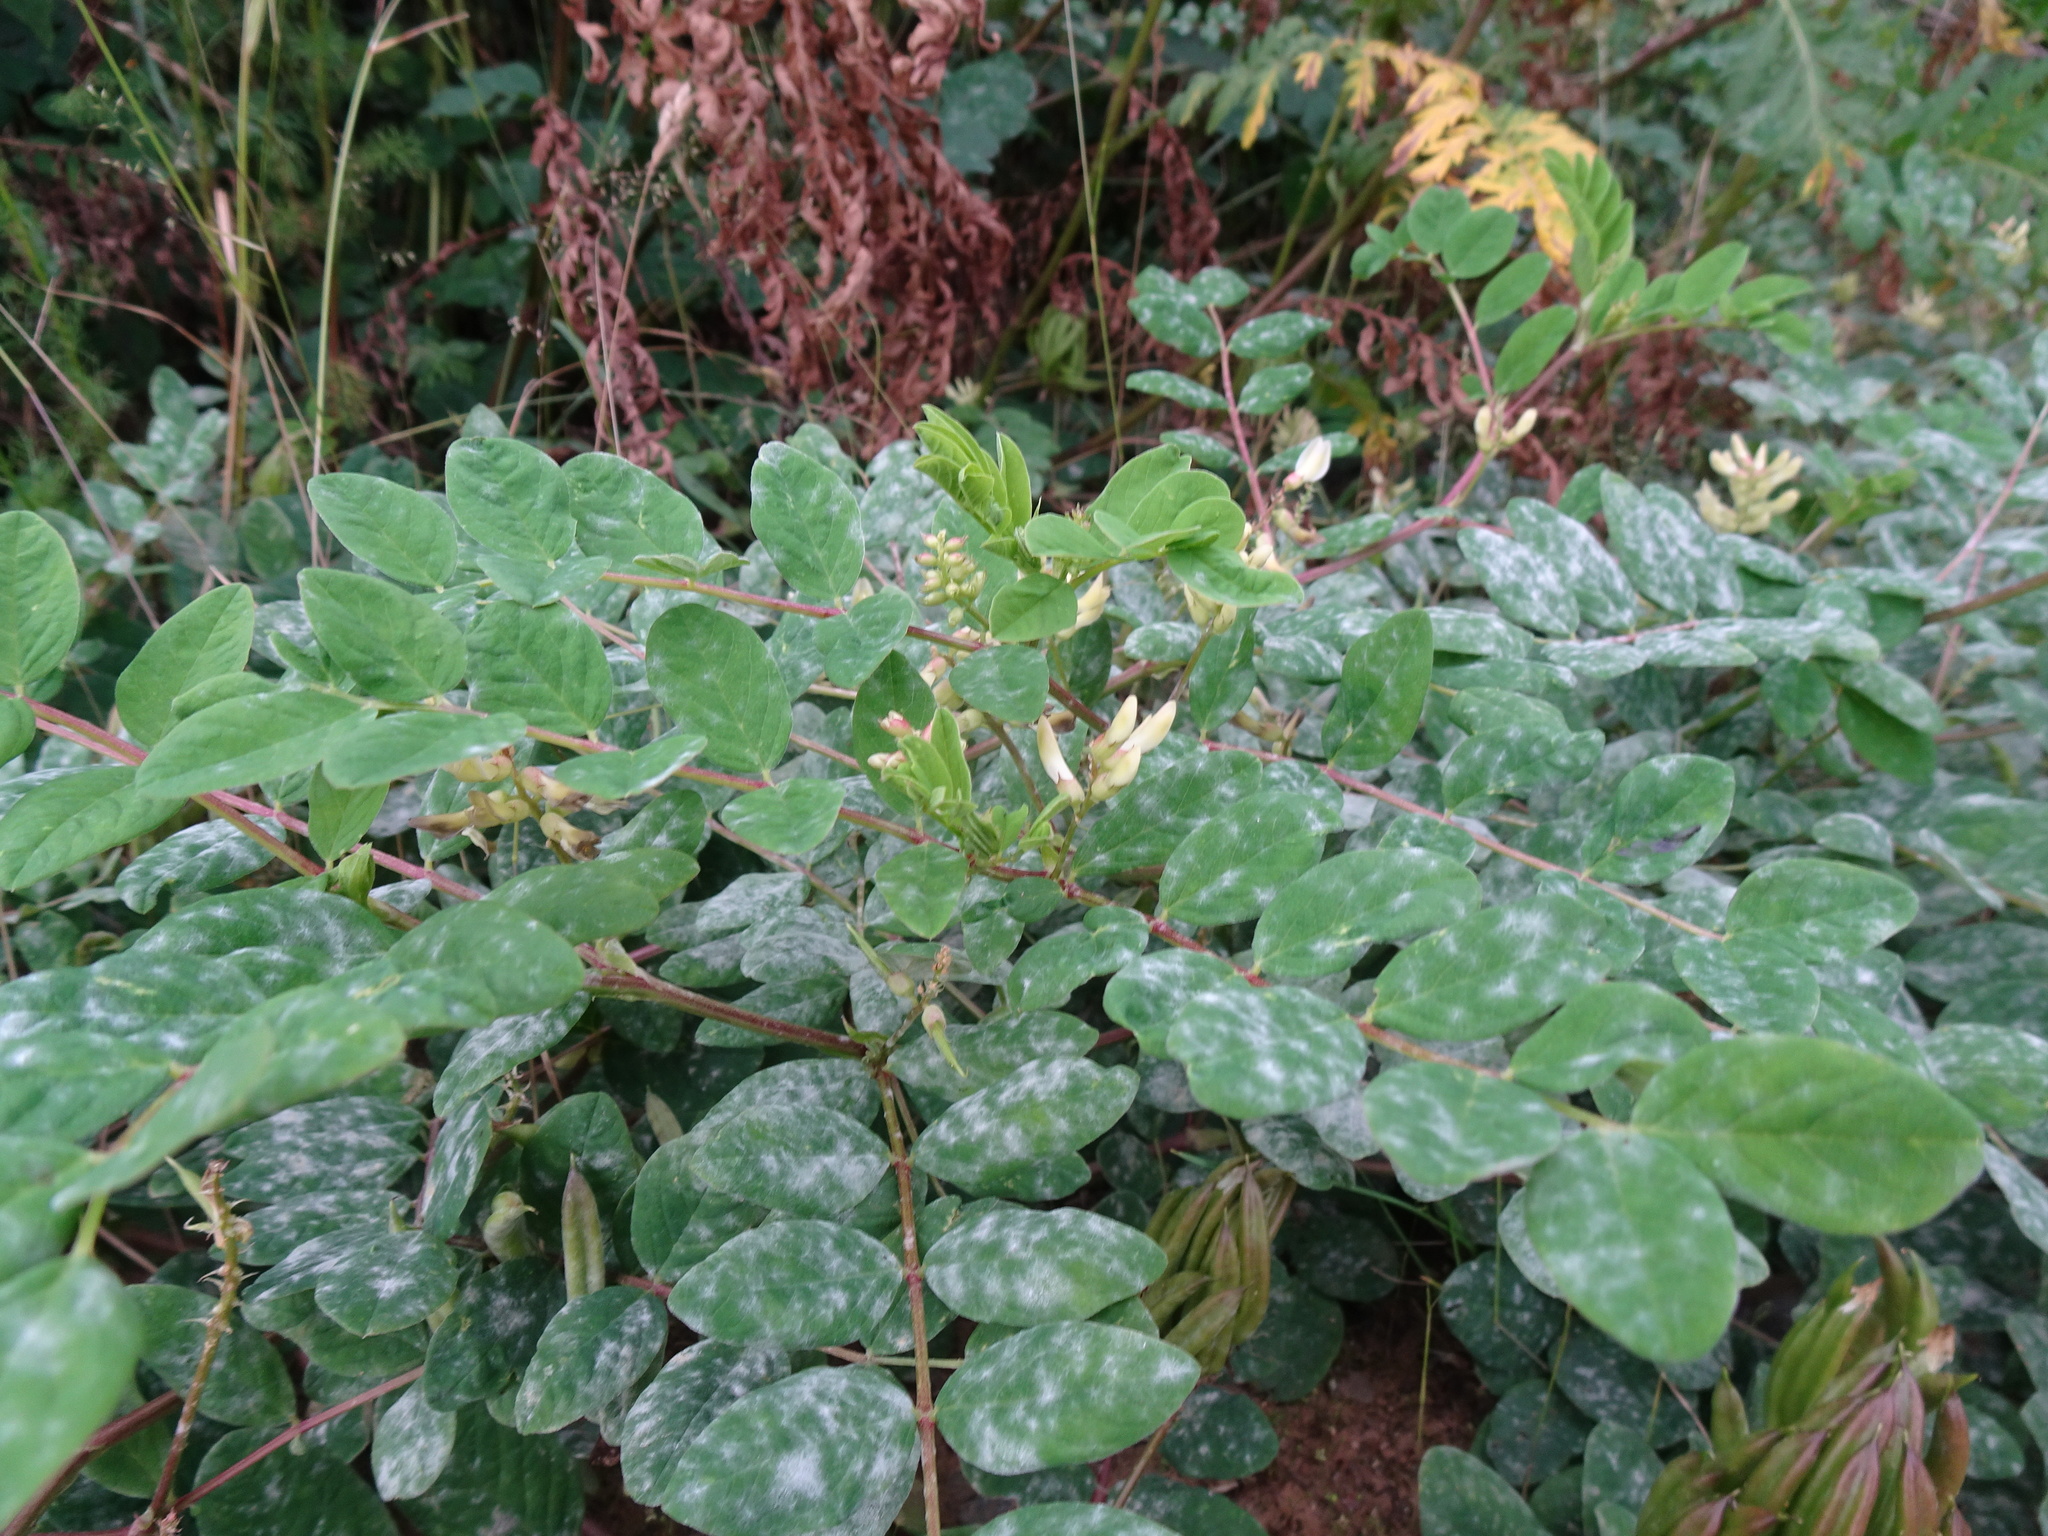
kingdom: Plantae
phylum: Tracheophyta
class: Magnoliopsida
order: Fabales
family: Fabaceae
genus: Astragalus
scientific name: Astragalus glycyphyllos
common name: Wild liquorice
